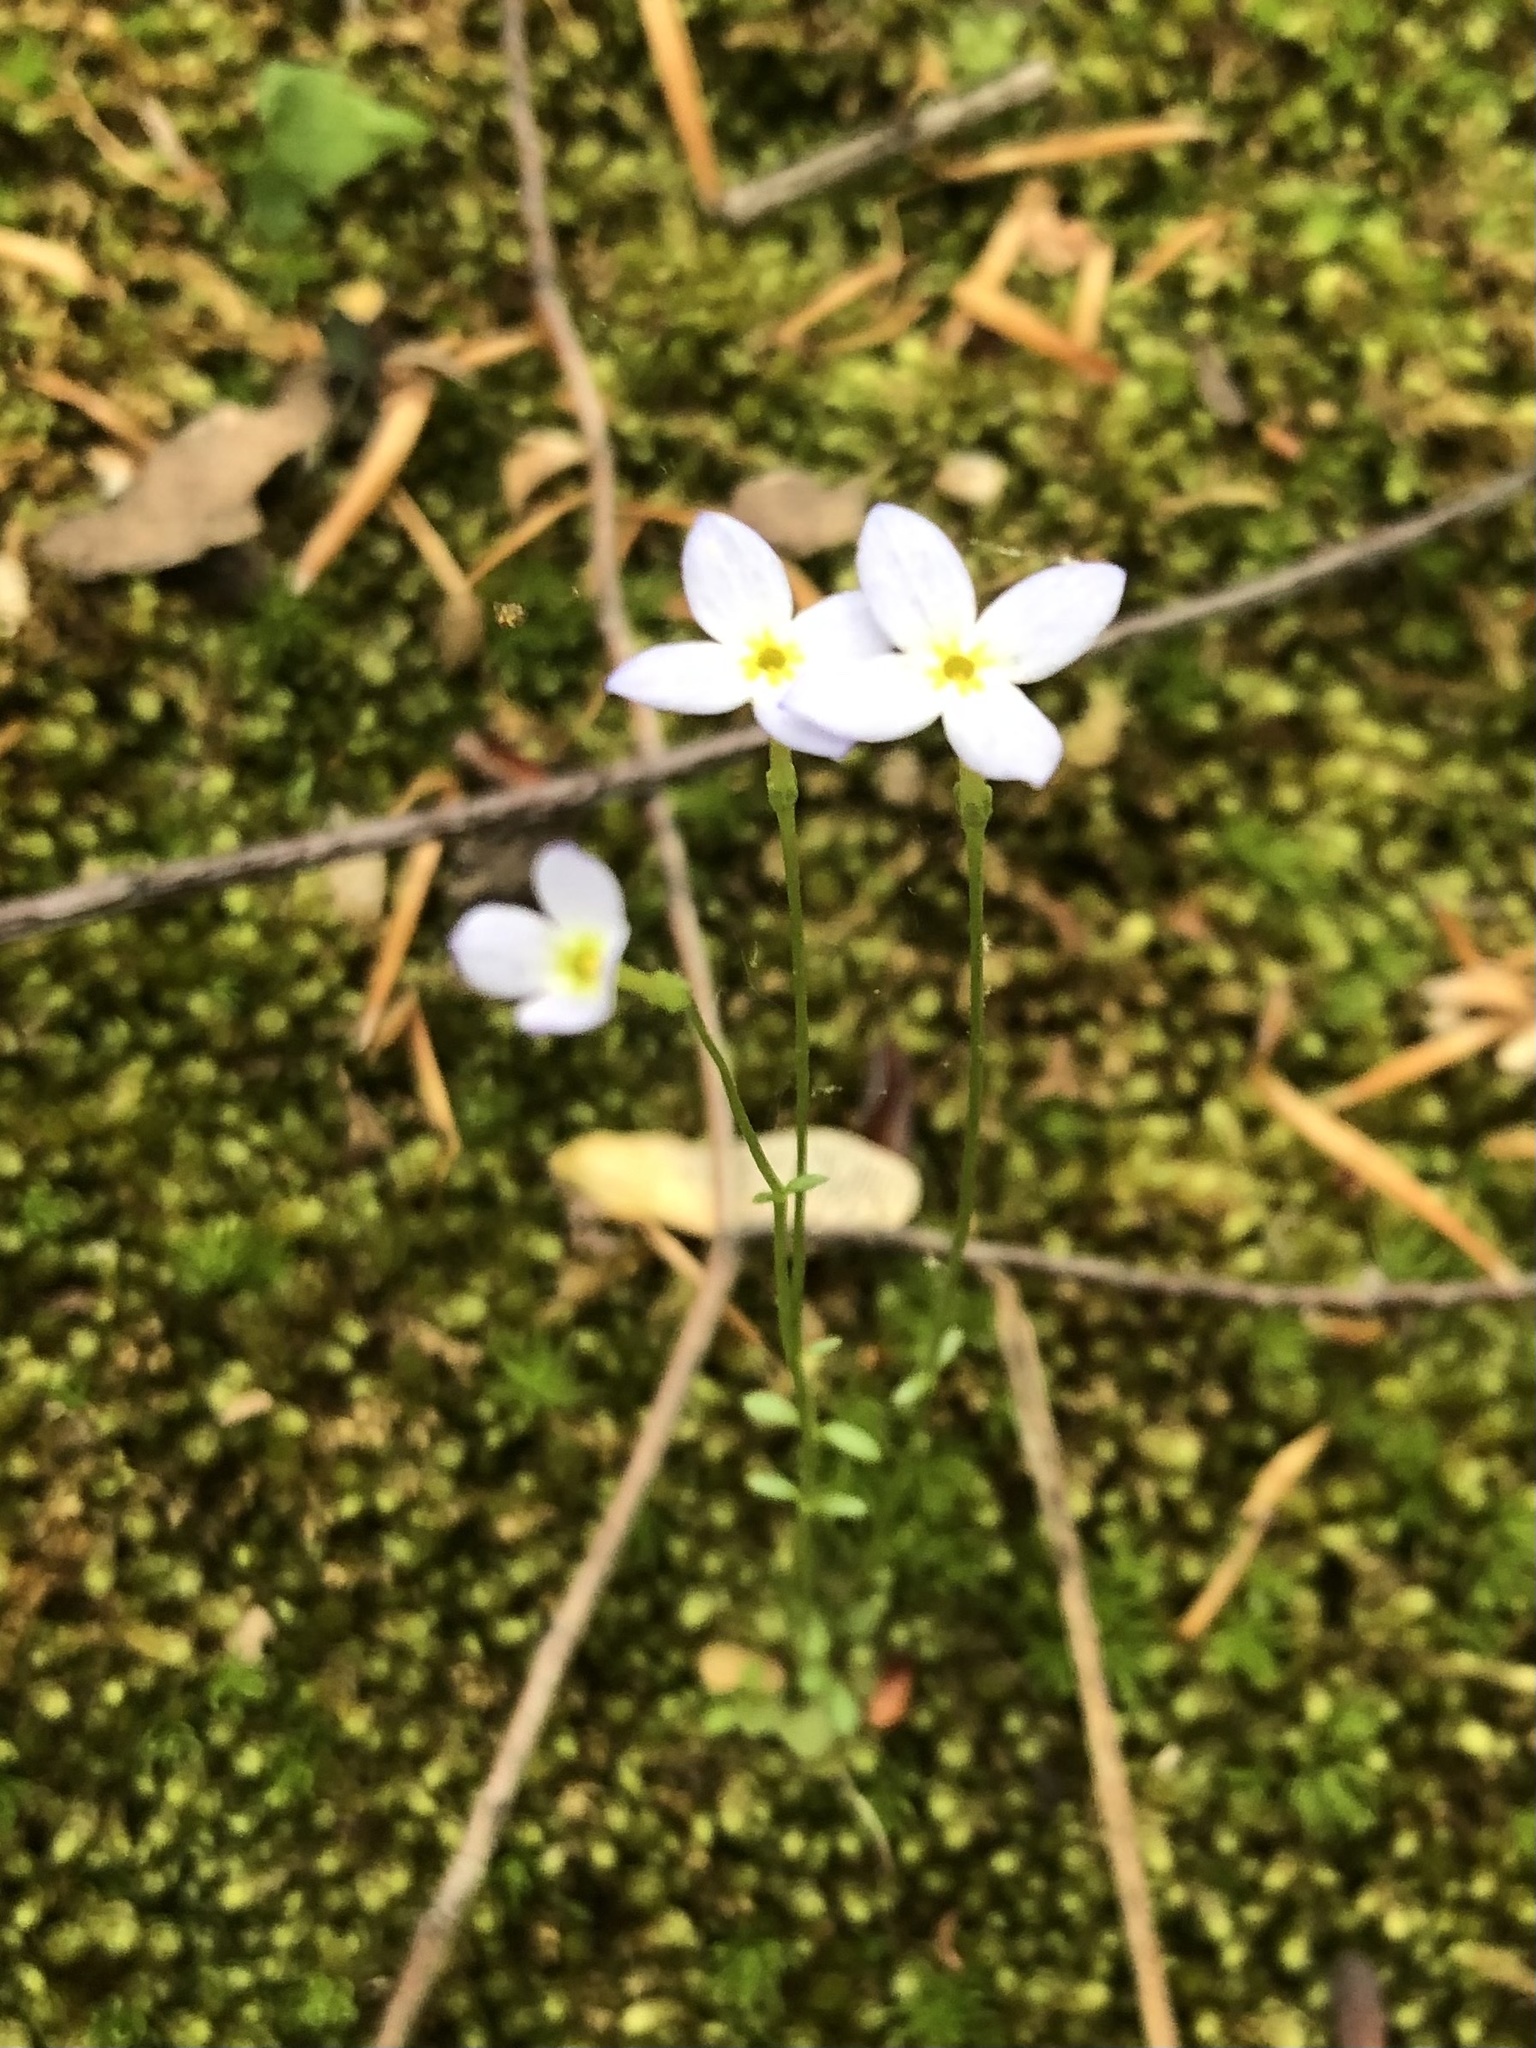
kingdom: Plantae
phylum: Tracheophyta
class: Magnoliopsida
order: Gentianales
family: Rubiaceae
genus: Houstonia
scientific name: Houstonia caerulea
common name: Bluets
